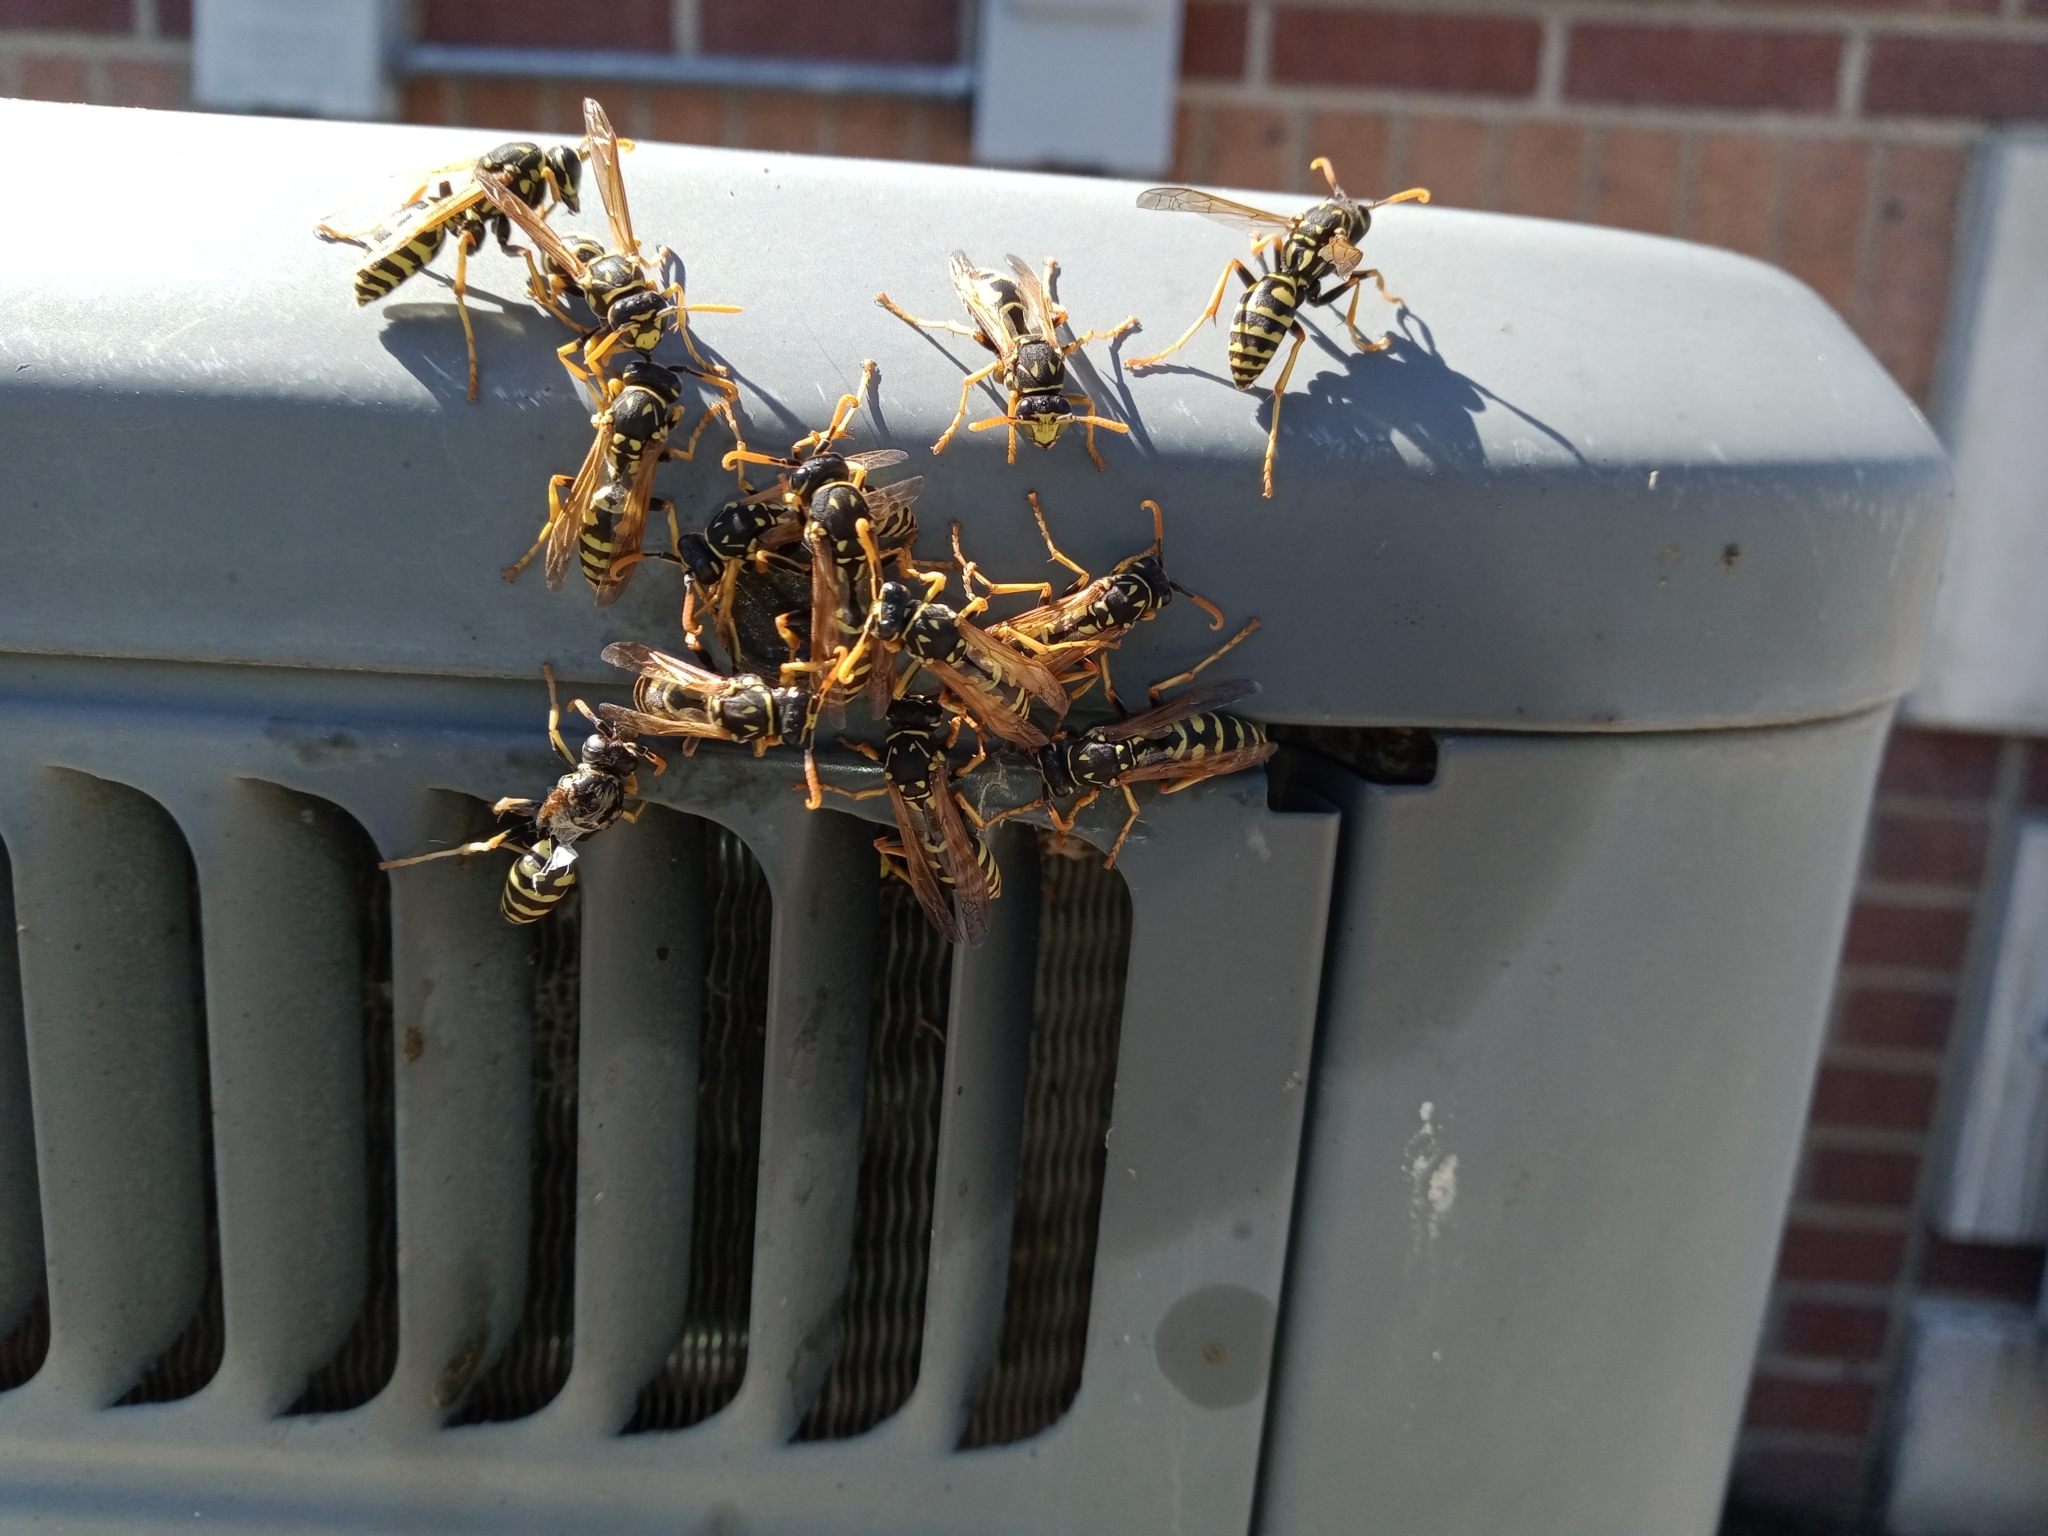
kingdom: Animalia
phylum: Arthropoda
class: Insecta
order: Hymenoptera
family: Eumenidae
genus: Polistes
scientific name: Polistes dominula
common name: Paper wasp
